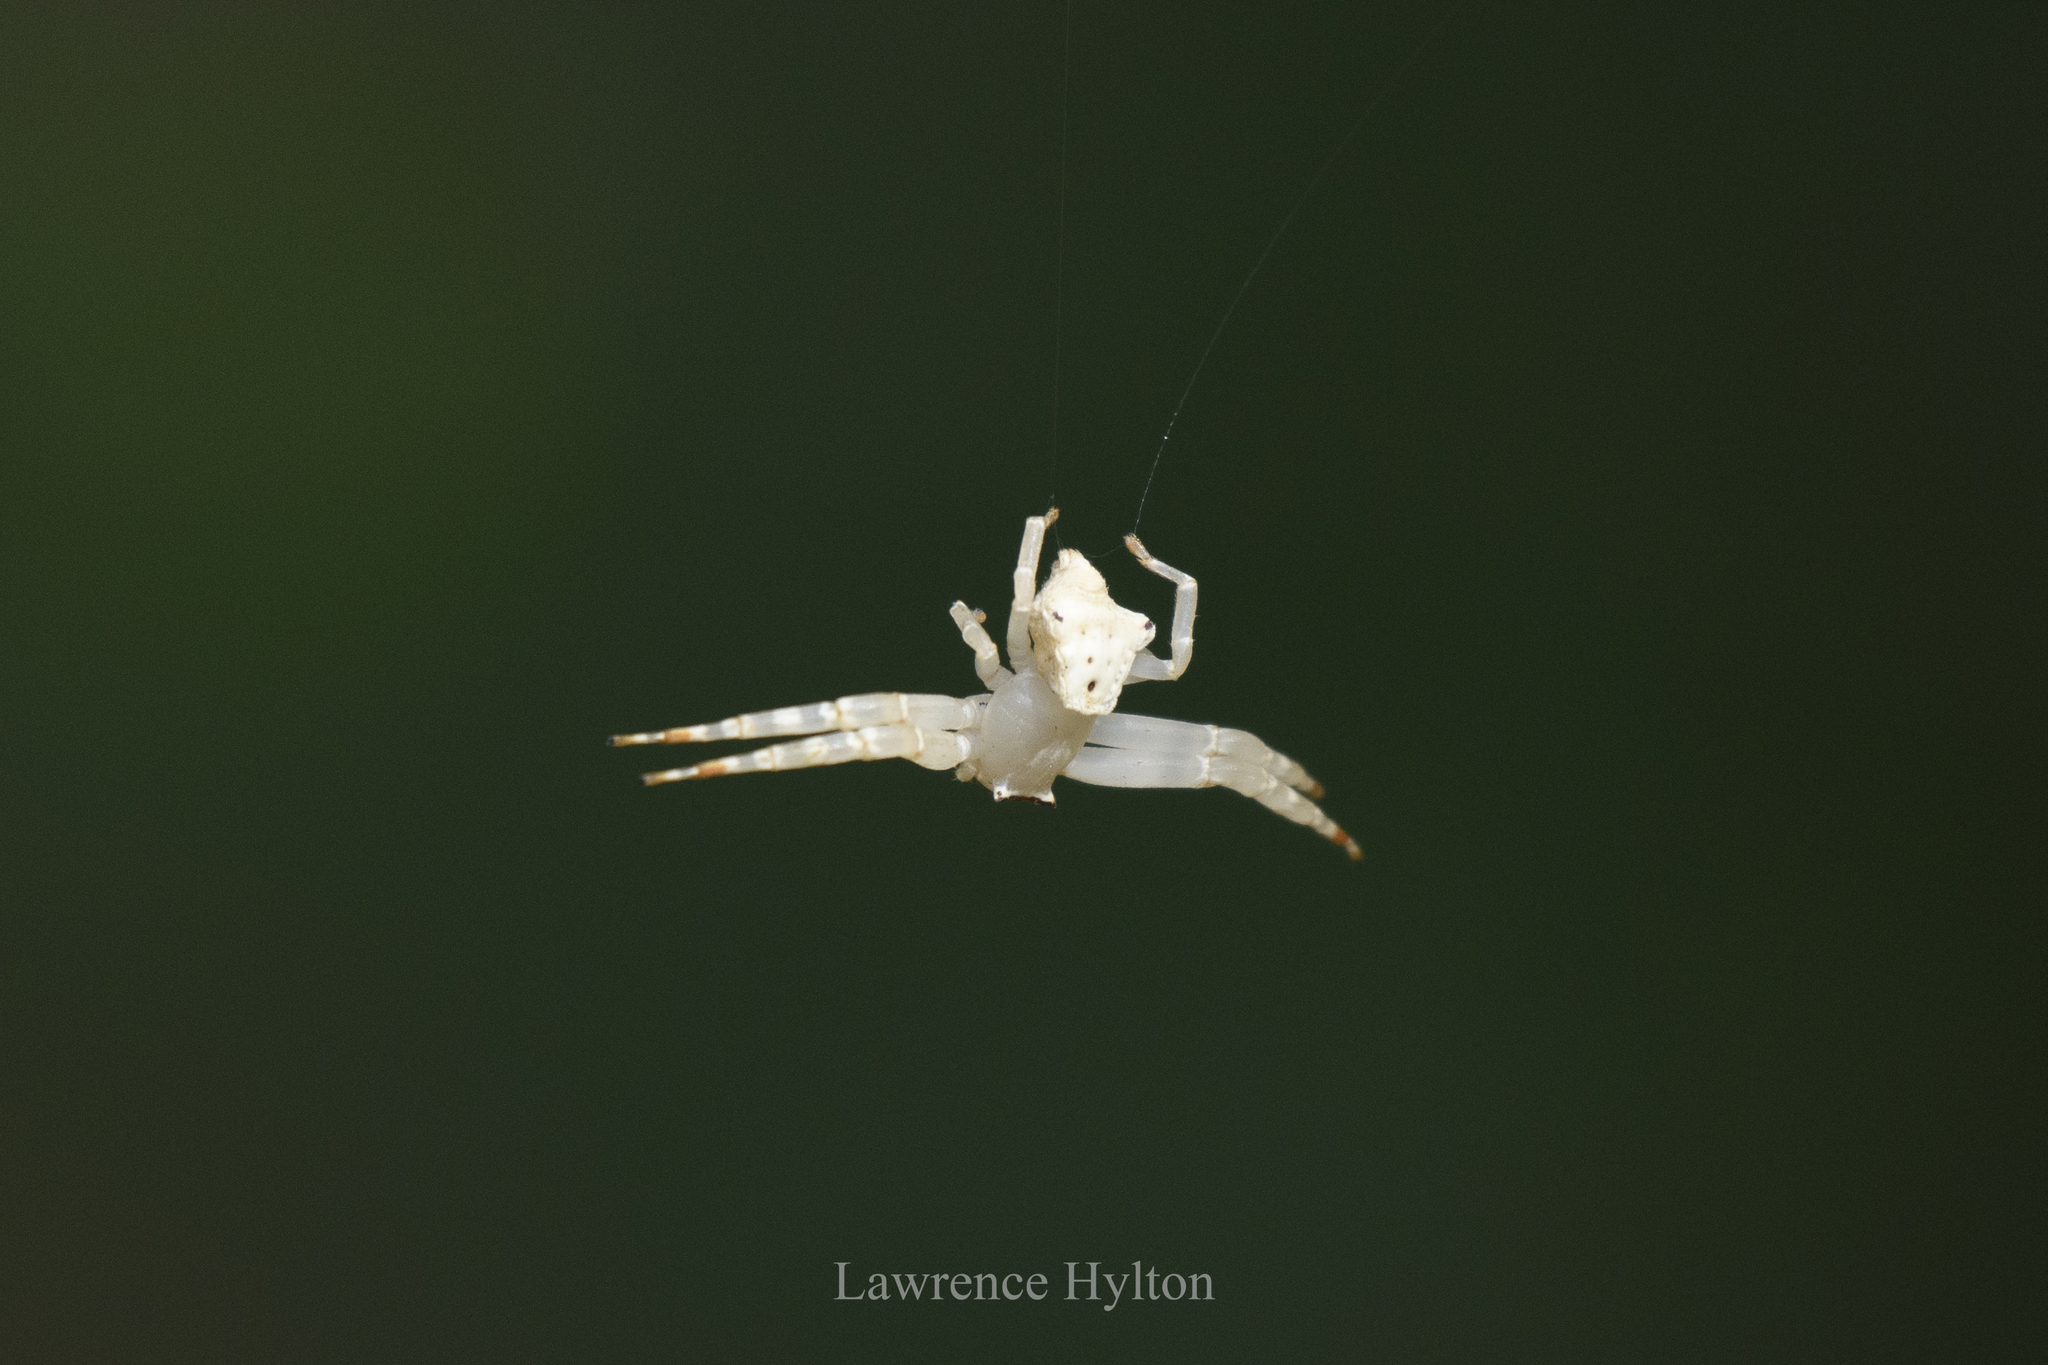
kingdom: Animalia
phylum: Arthropoda
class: Arachnida
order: Araneae
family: Thomisidae
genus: Thomisus
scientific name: Thomisus labefactus
